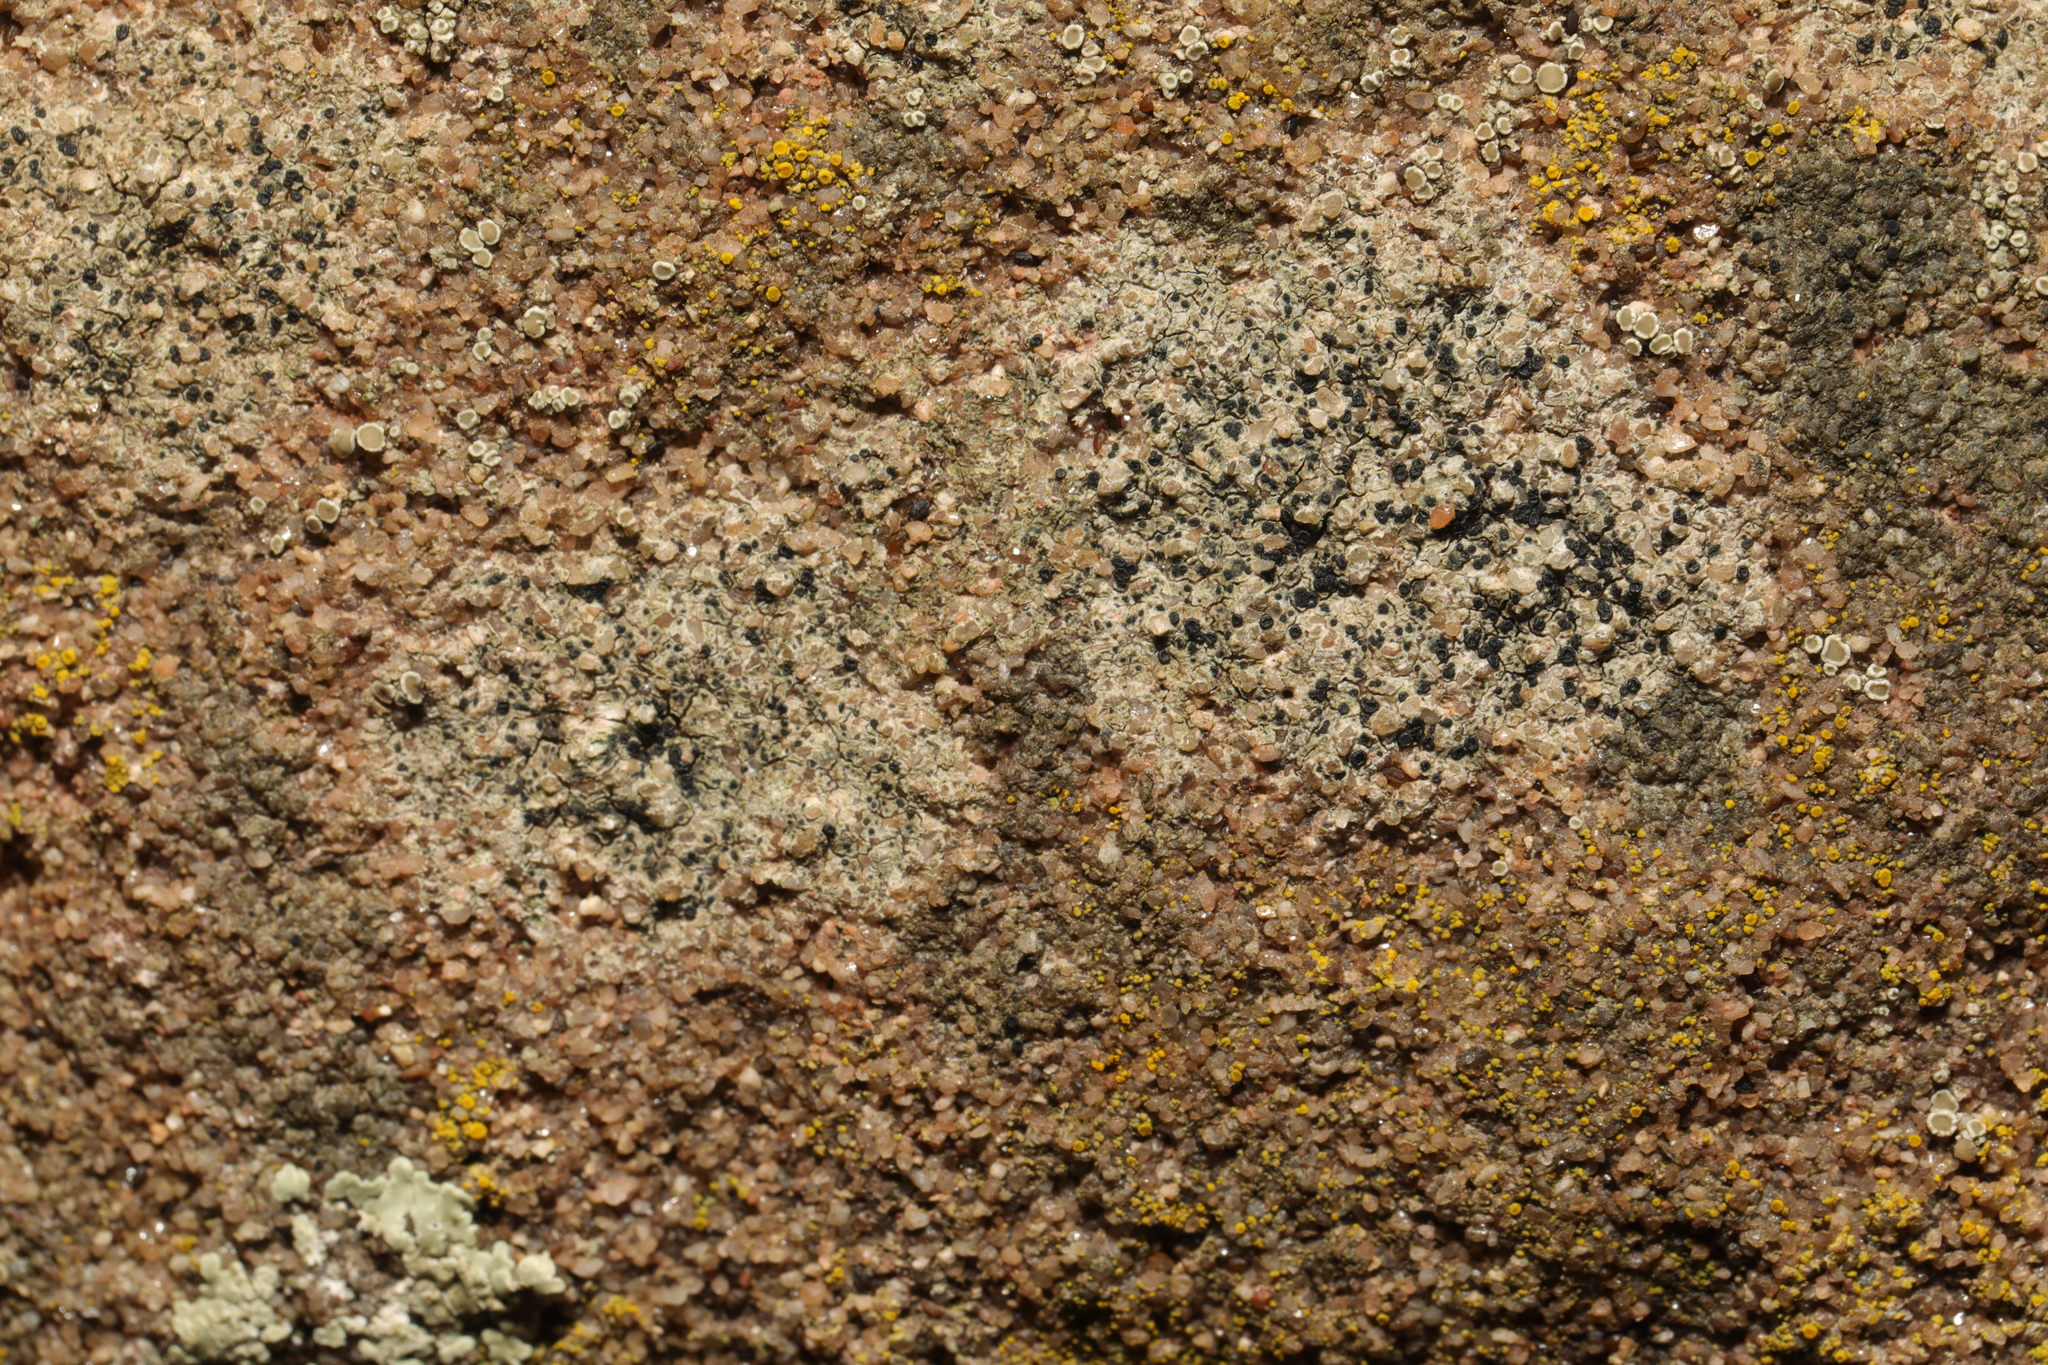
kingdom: Fungi
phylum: Ascomycota
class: Lecanoromycetes
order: Lecanorales
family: Lecanoraceae
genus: Lecidella
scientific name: Lecidella stigmatea
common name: Limestone disc lichen
